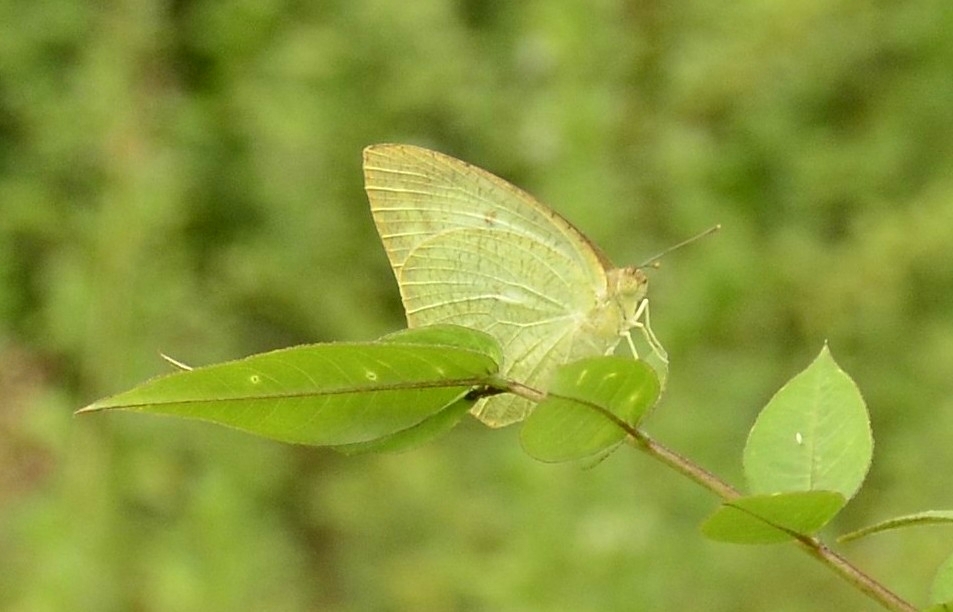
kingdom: Animalia
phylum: Arthropoda
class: Insecta
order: Lepidoptera
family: Pieridae
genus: Catopsilia
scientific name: Catopsilia pyranthe
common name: Mottled emigrant
